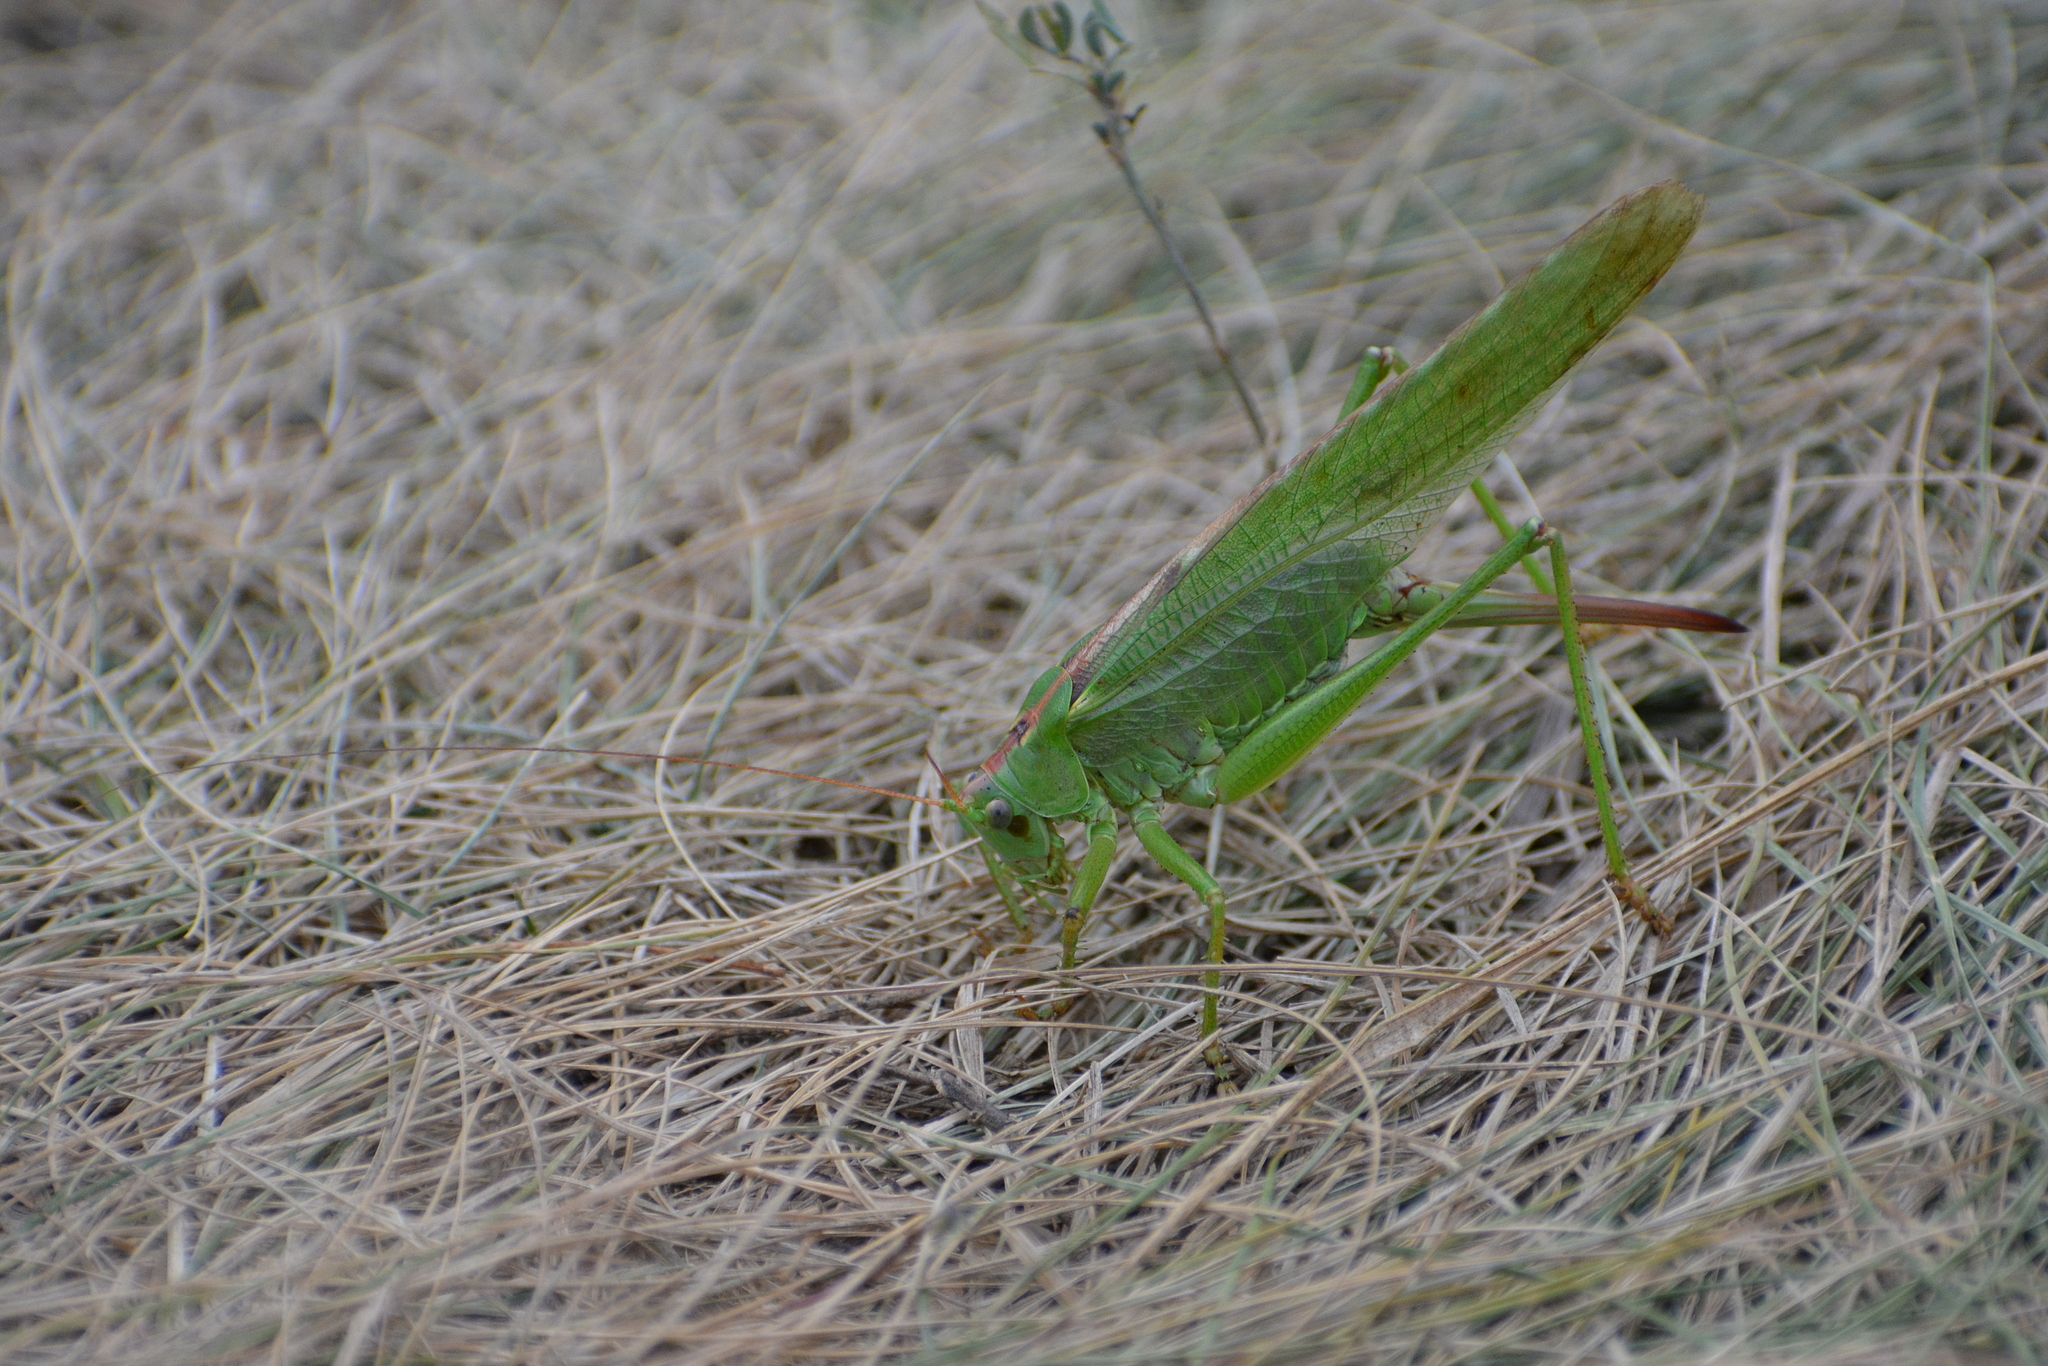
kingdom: Animalia
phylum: Arthropoda
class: Insecta
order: Orthoptera
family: Tettigoniidae
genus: Tettigonia
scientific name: Tettigonia viridissima
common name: Great green bush-cricket
